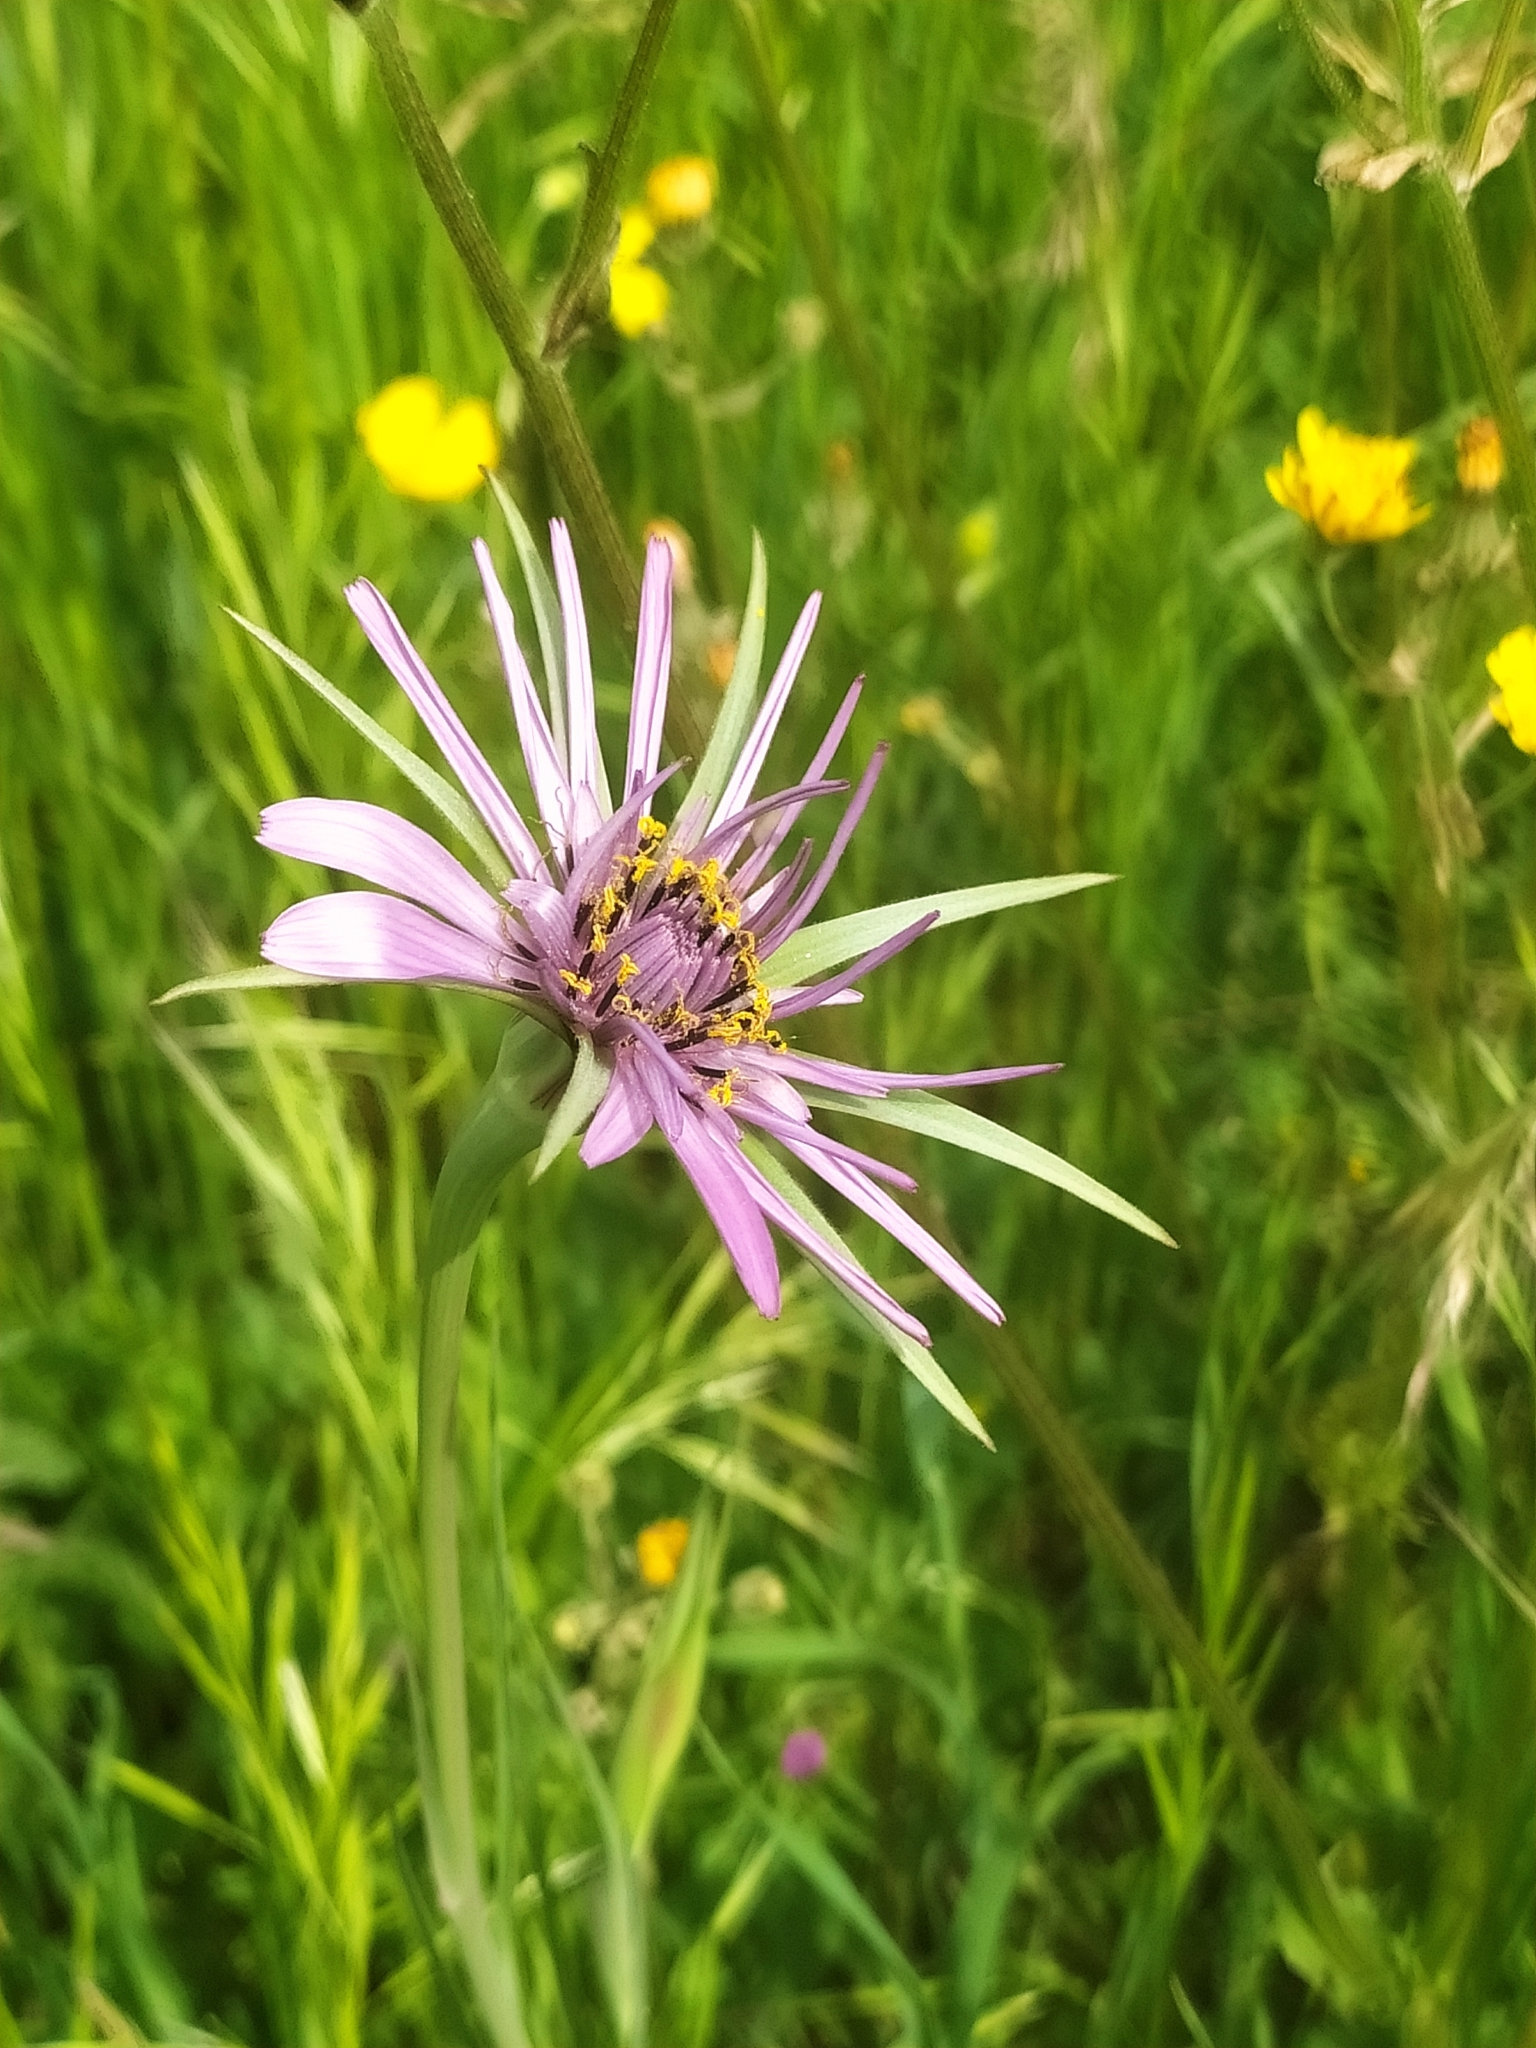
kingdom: Plantae
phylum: Tracheophyta
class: Magnoliopsida
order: Asterales
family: Asteraceae
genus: Tragopogon
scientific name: Tragopogon porrifolius
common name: Salsify
